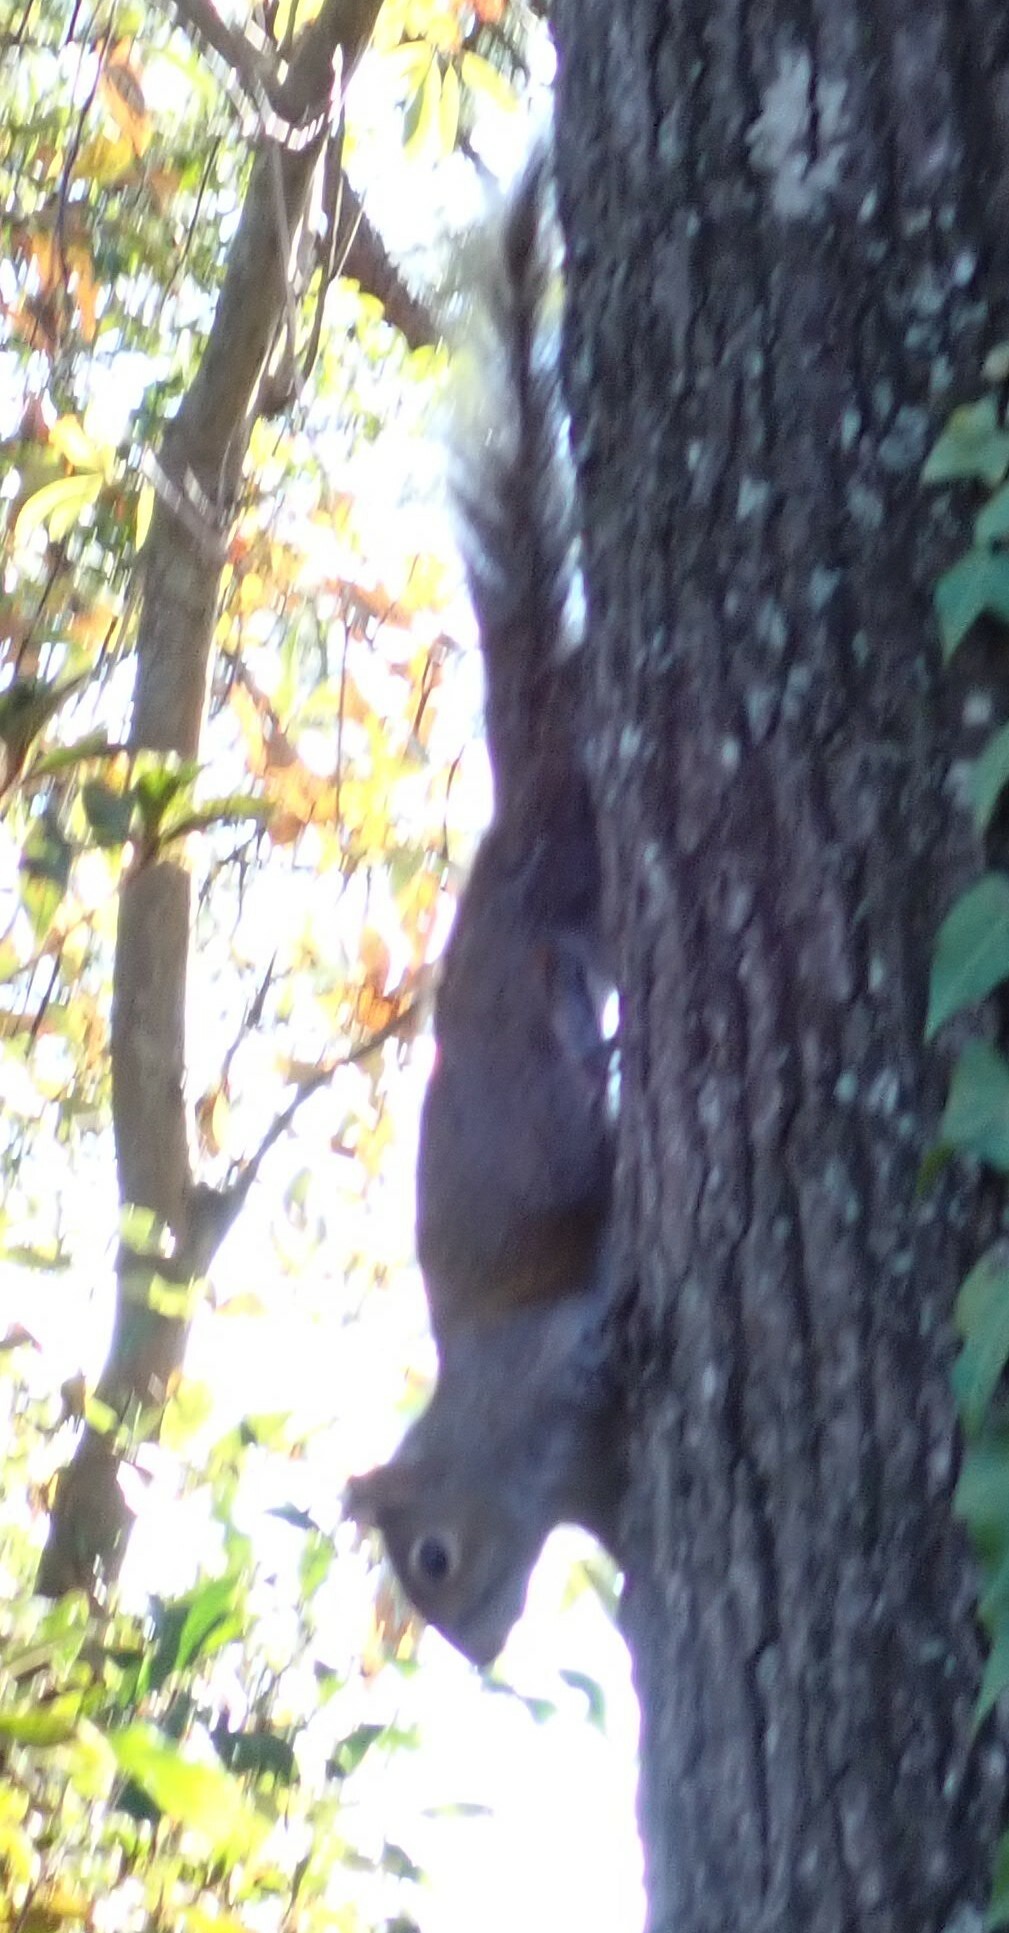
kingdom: Animalia
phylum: Chordata
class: Mammalia
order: Rodentia
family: Sciuridae
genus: Sciurus
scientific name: Sciurus carolinensis
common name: Eastern gray squirrel
